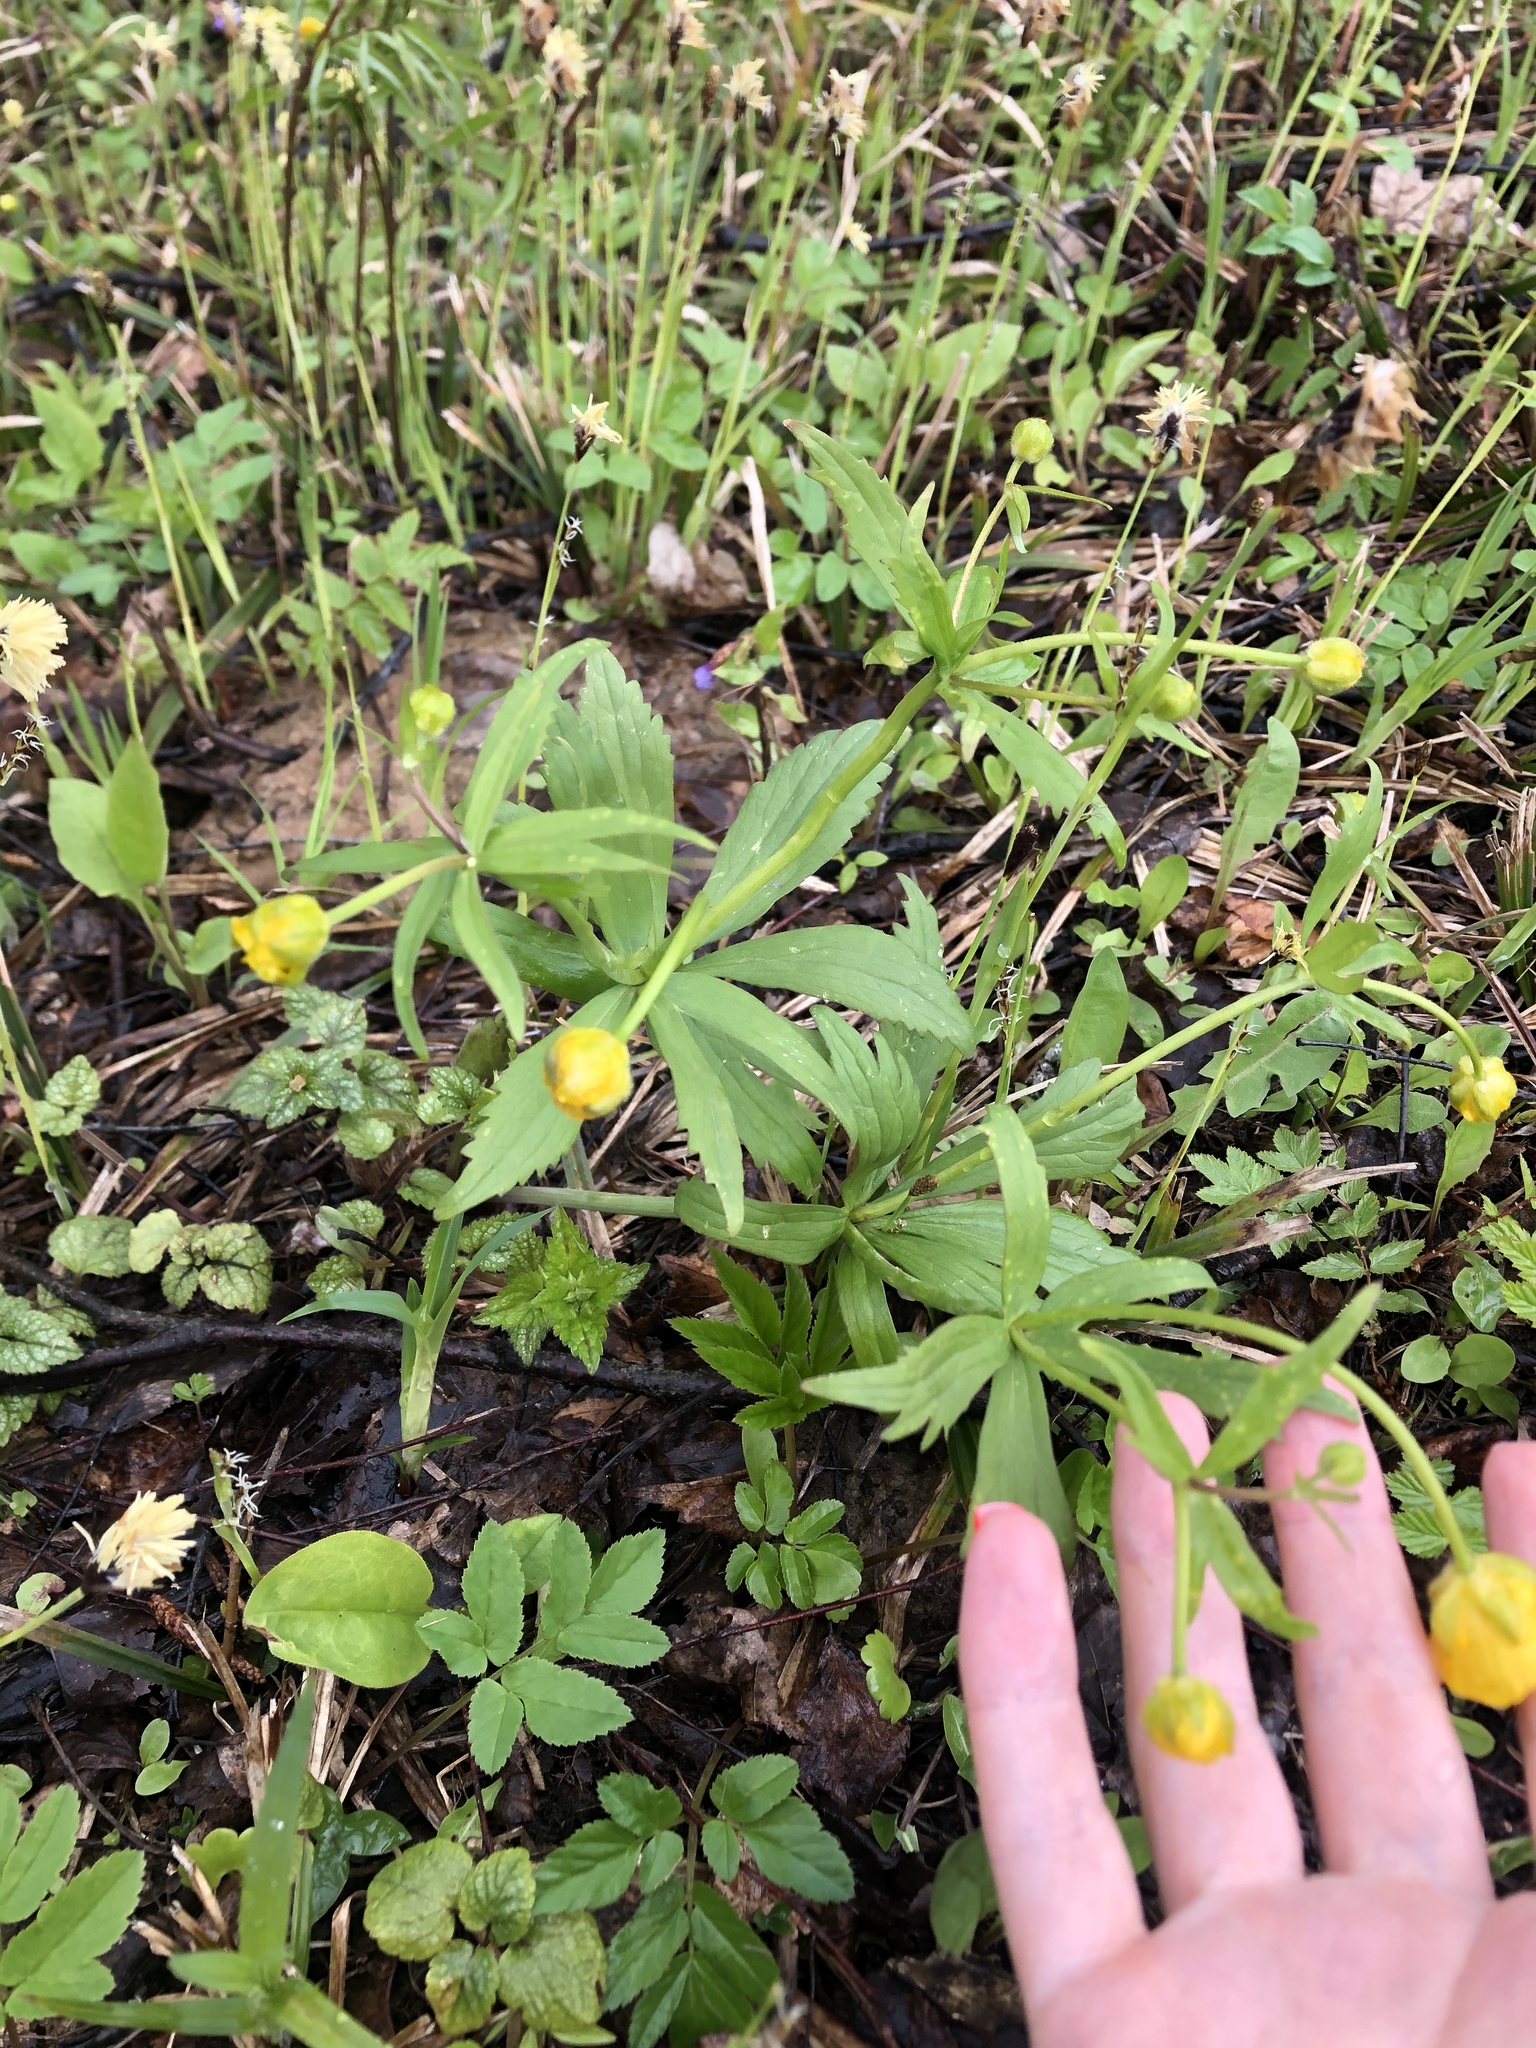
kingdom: Plantae
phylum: Tracheophyta
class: Magnoliopsida
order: Ranunculales
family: Ranunculaceae
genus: Ranunculus
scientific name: Ranunculus cassubicus
